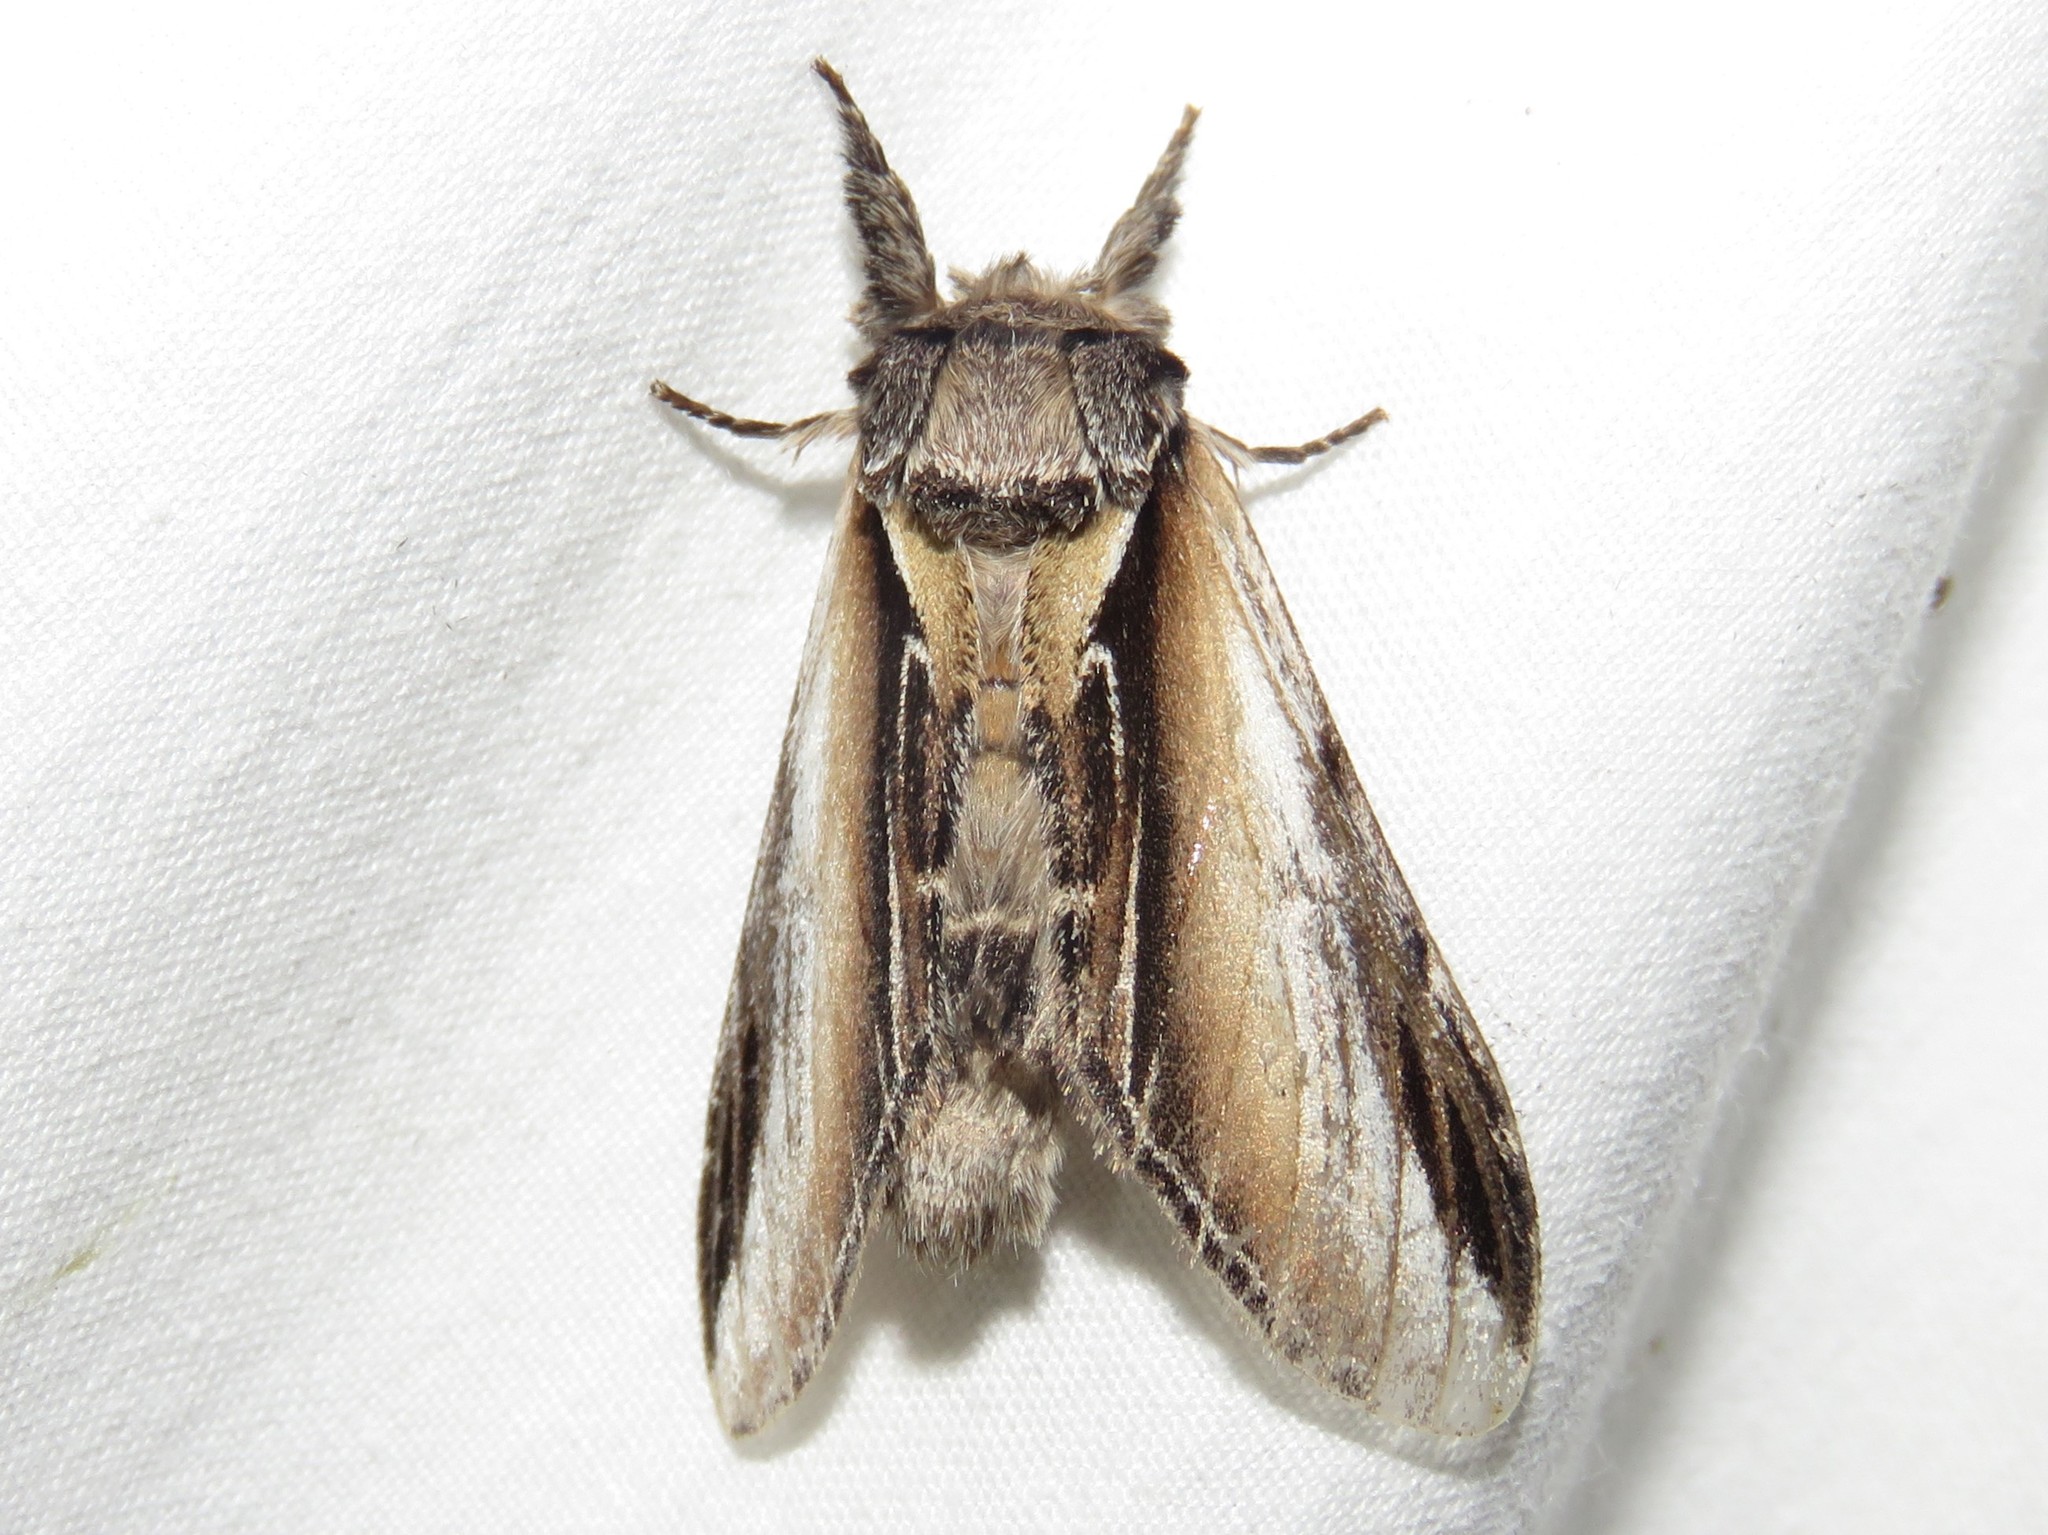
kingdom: Animalia
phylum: Arthropoda
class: Insecta
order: Lepidoptera
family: Notodontidae
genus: Pheosia
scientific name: Pheosia rimosa
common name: Black-rimmed prominent
